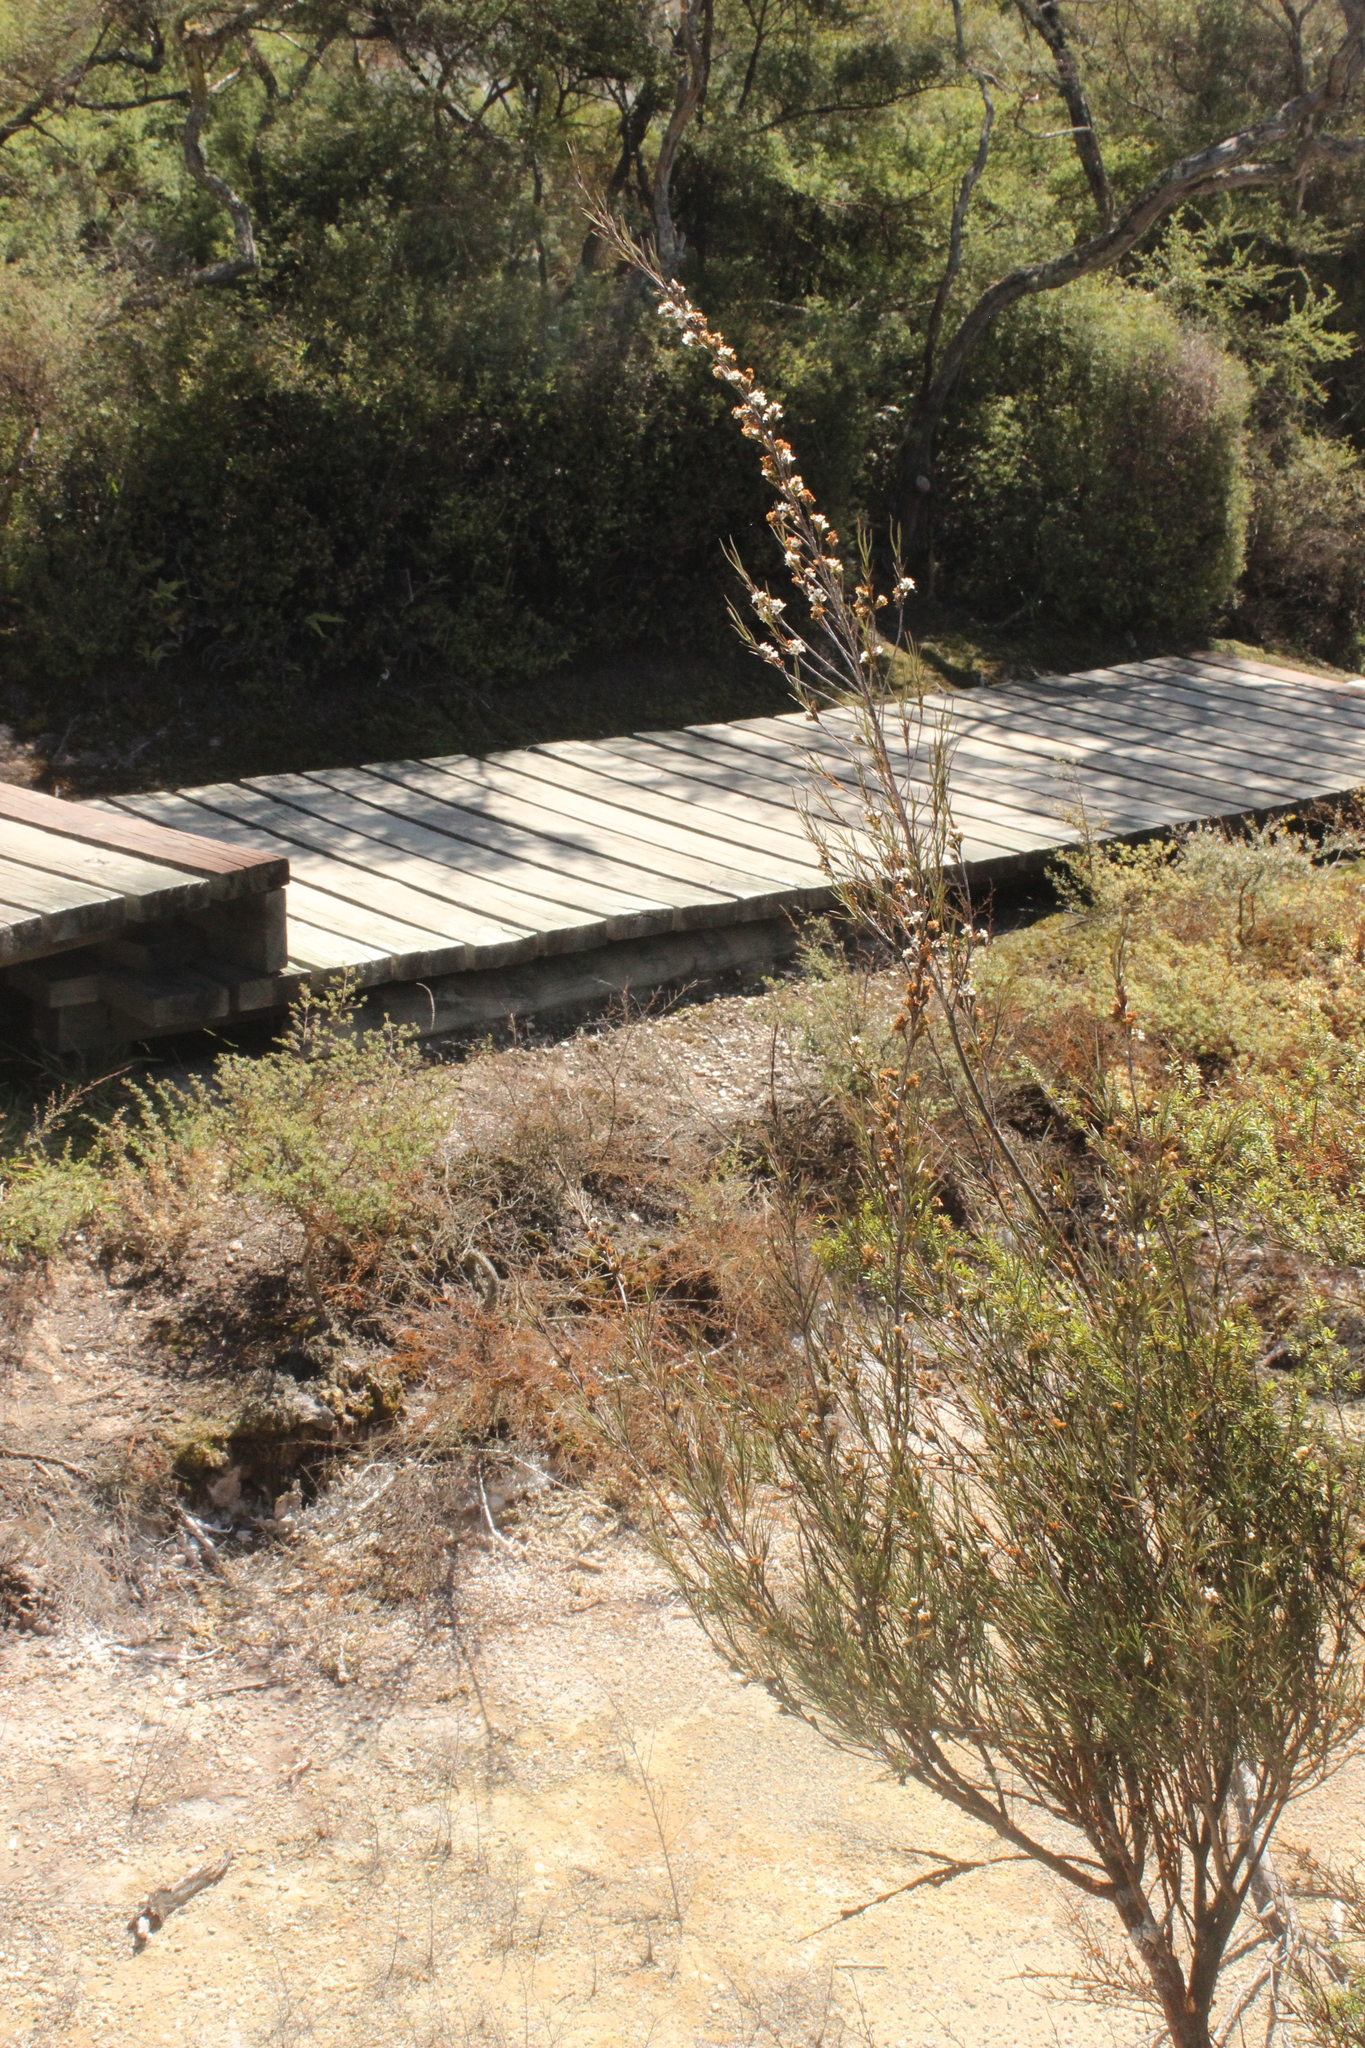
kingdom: Plantae
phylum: Tracheophyta
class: Magnoliopsida
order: Ericales
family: Ericaceae
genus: Dracophyllum
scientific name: Dracophyllum subulatum
